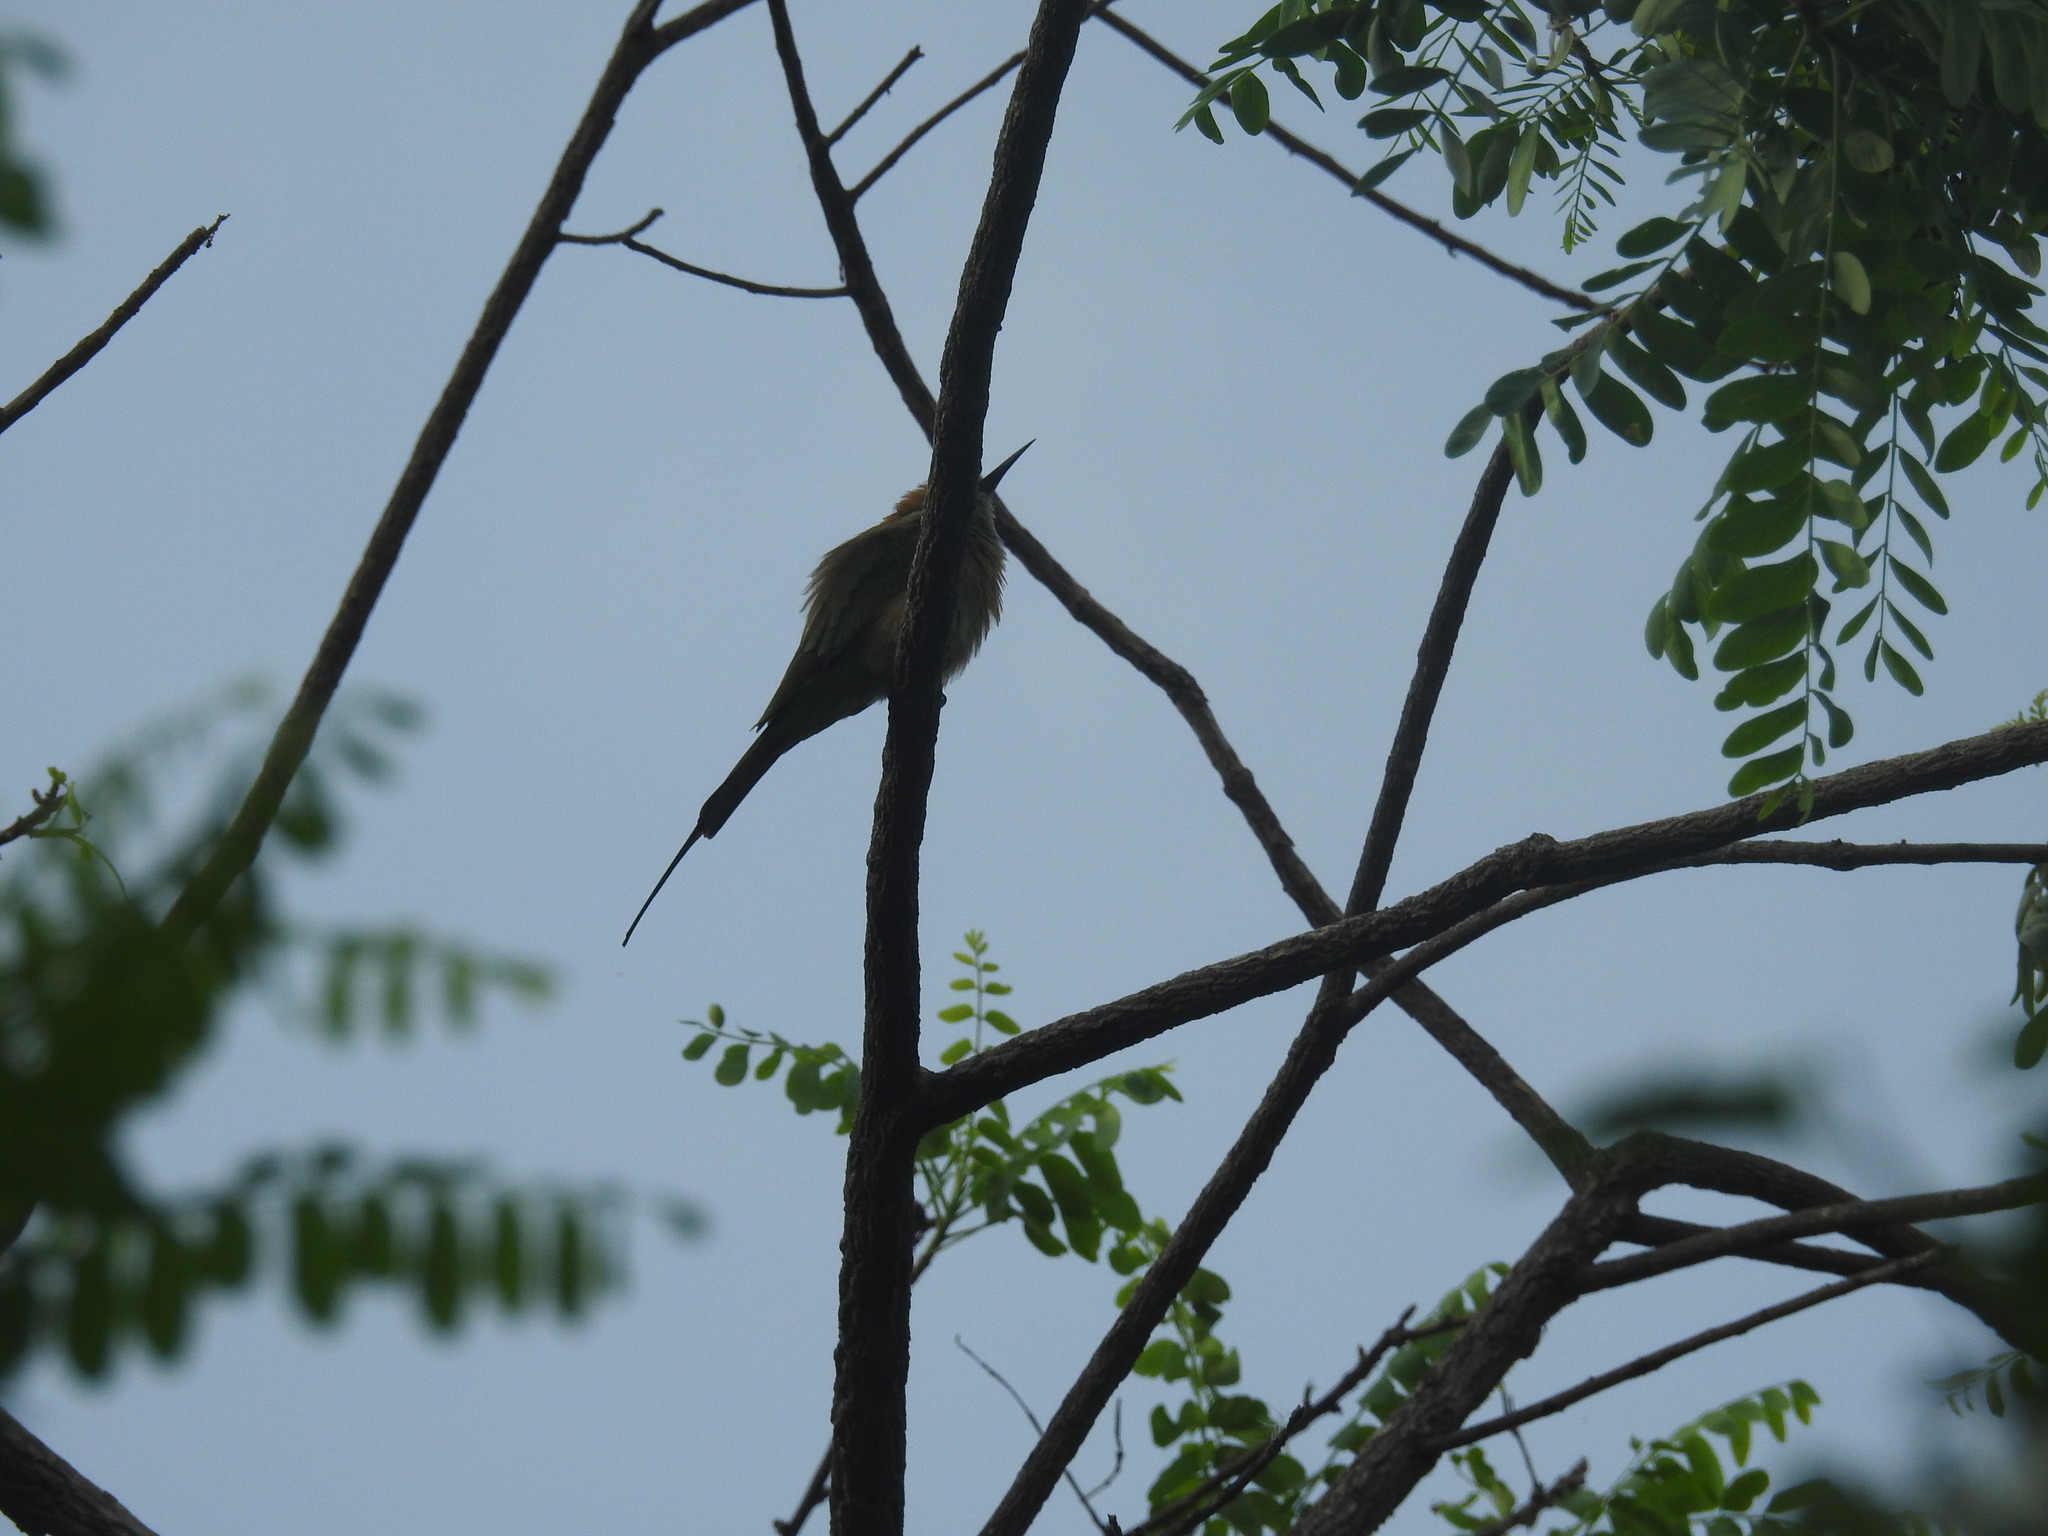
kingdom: Animalia
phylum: Chordata
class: Aves
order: Coraciiformes
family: Meropidae
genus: Merops
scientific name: Merops orientalis
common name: Green bee-eater
